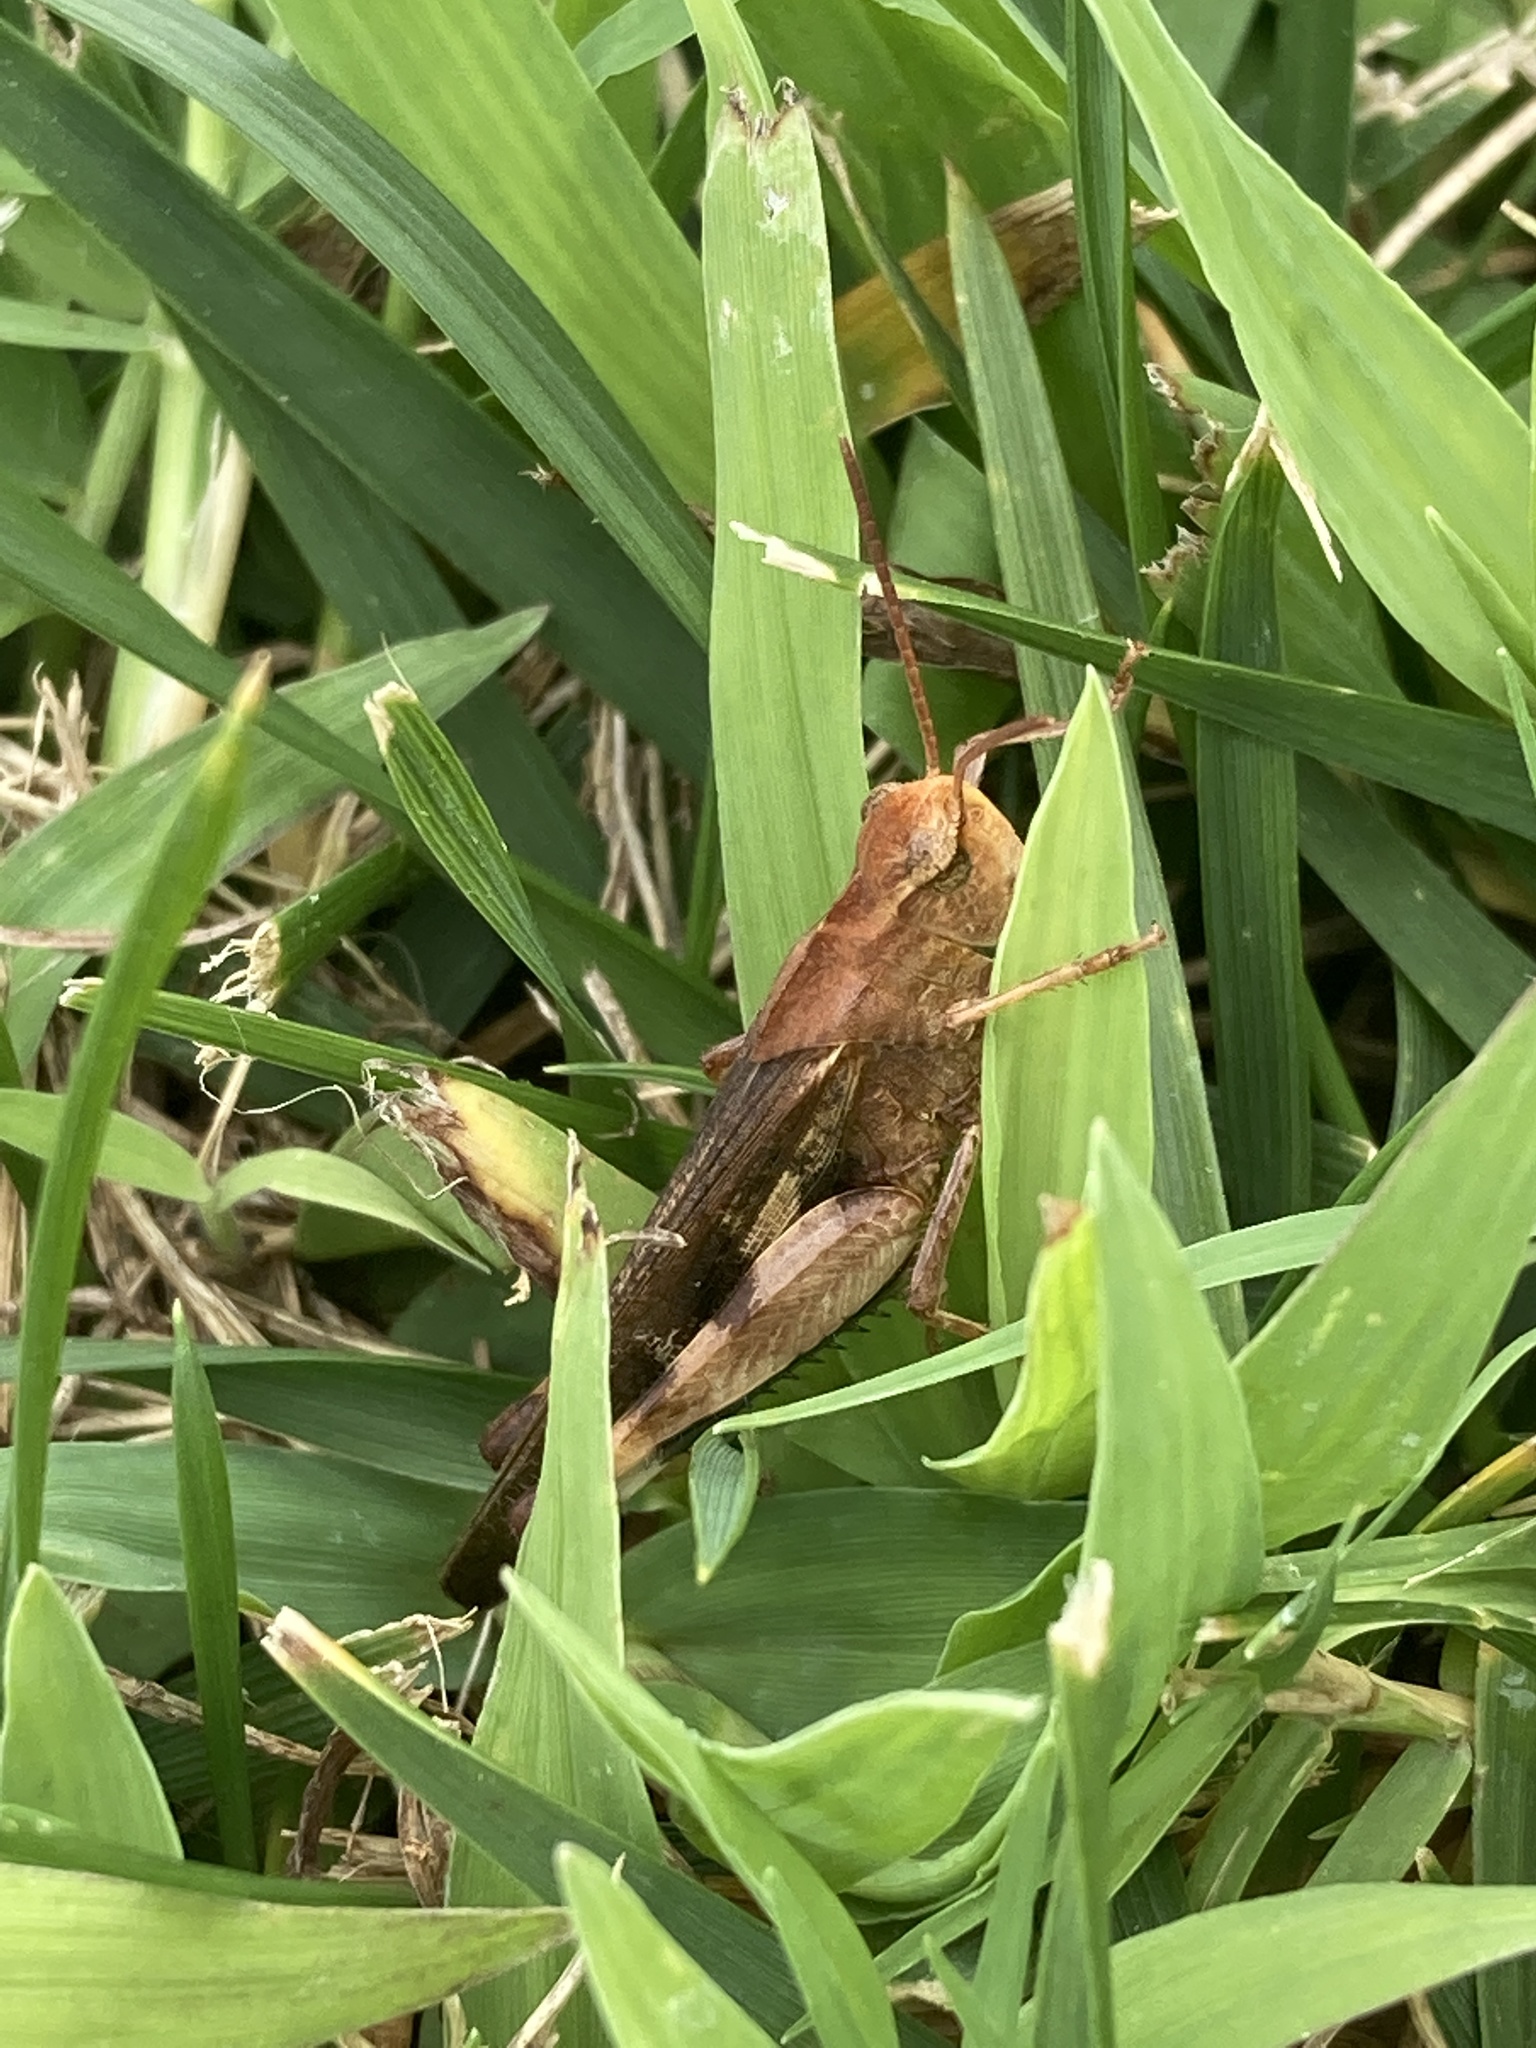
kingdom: Animalia
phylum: Arthropoda
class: Insecta
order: Orthoptera
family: Acrididae
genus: Chortophaga
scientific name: Chortophaga viridifasciata
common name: Green-striped grasshopper
